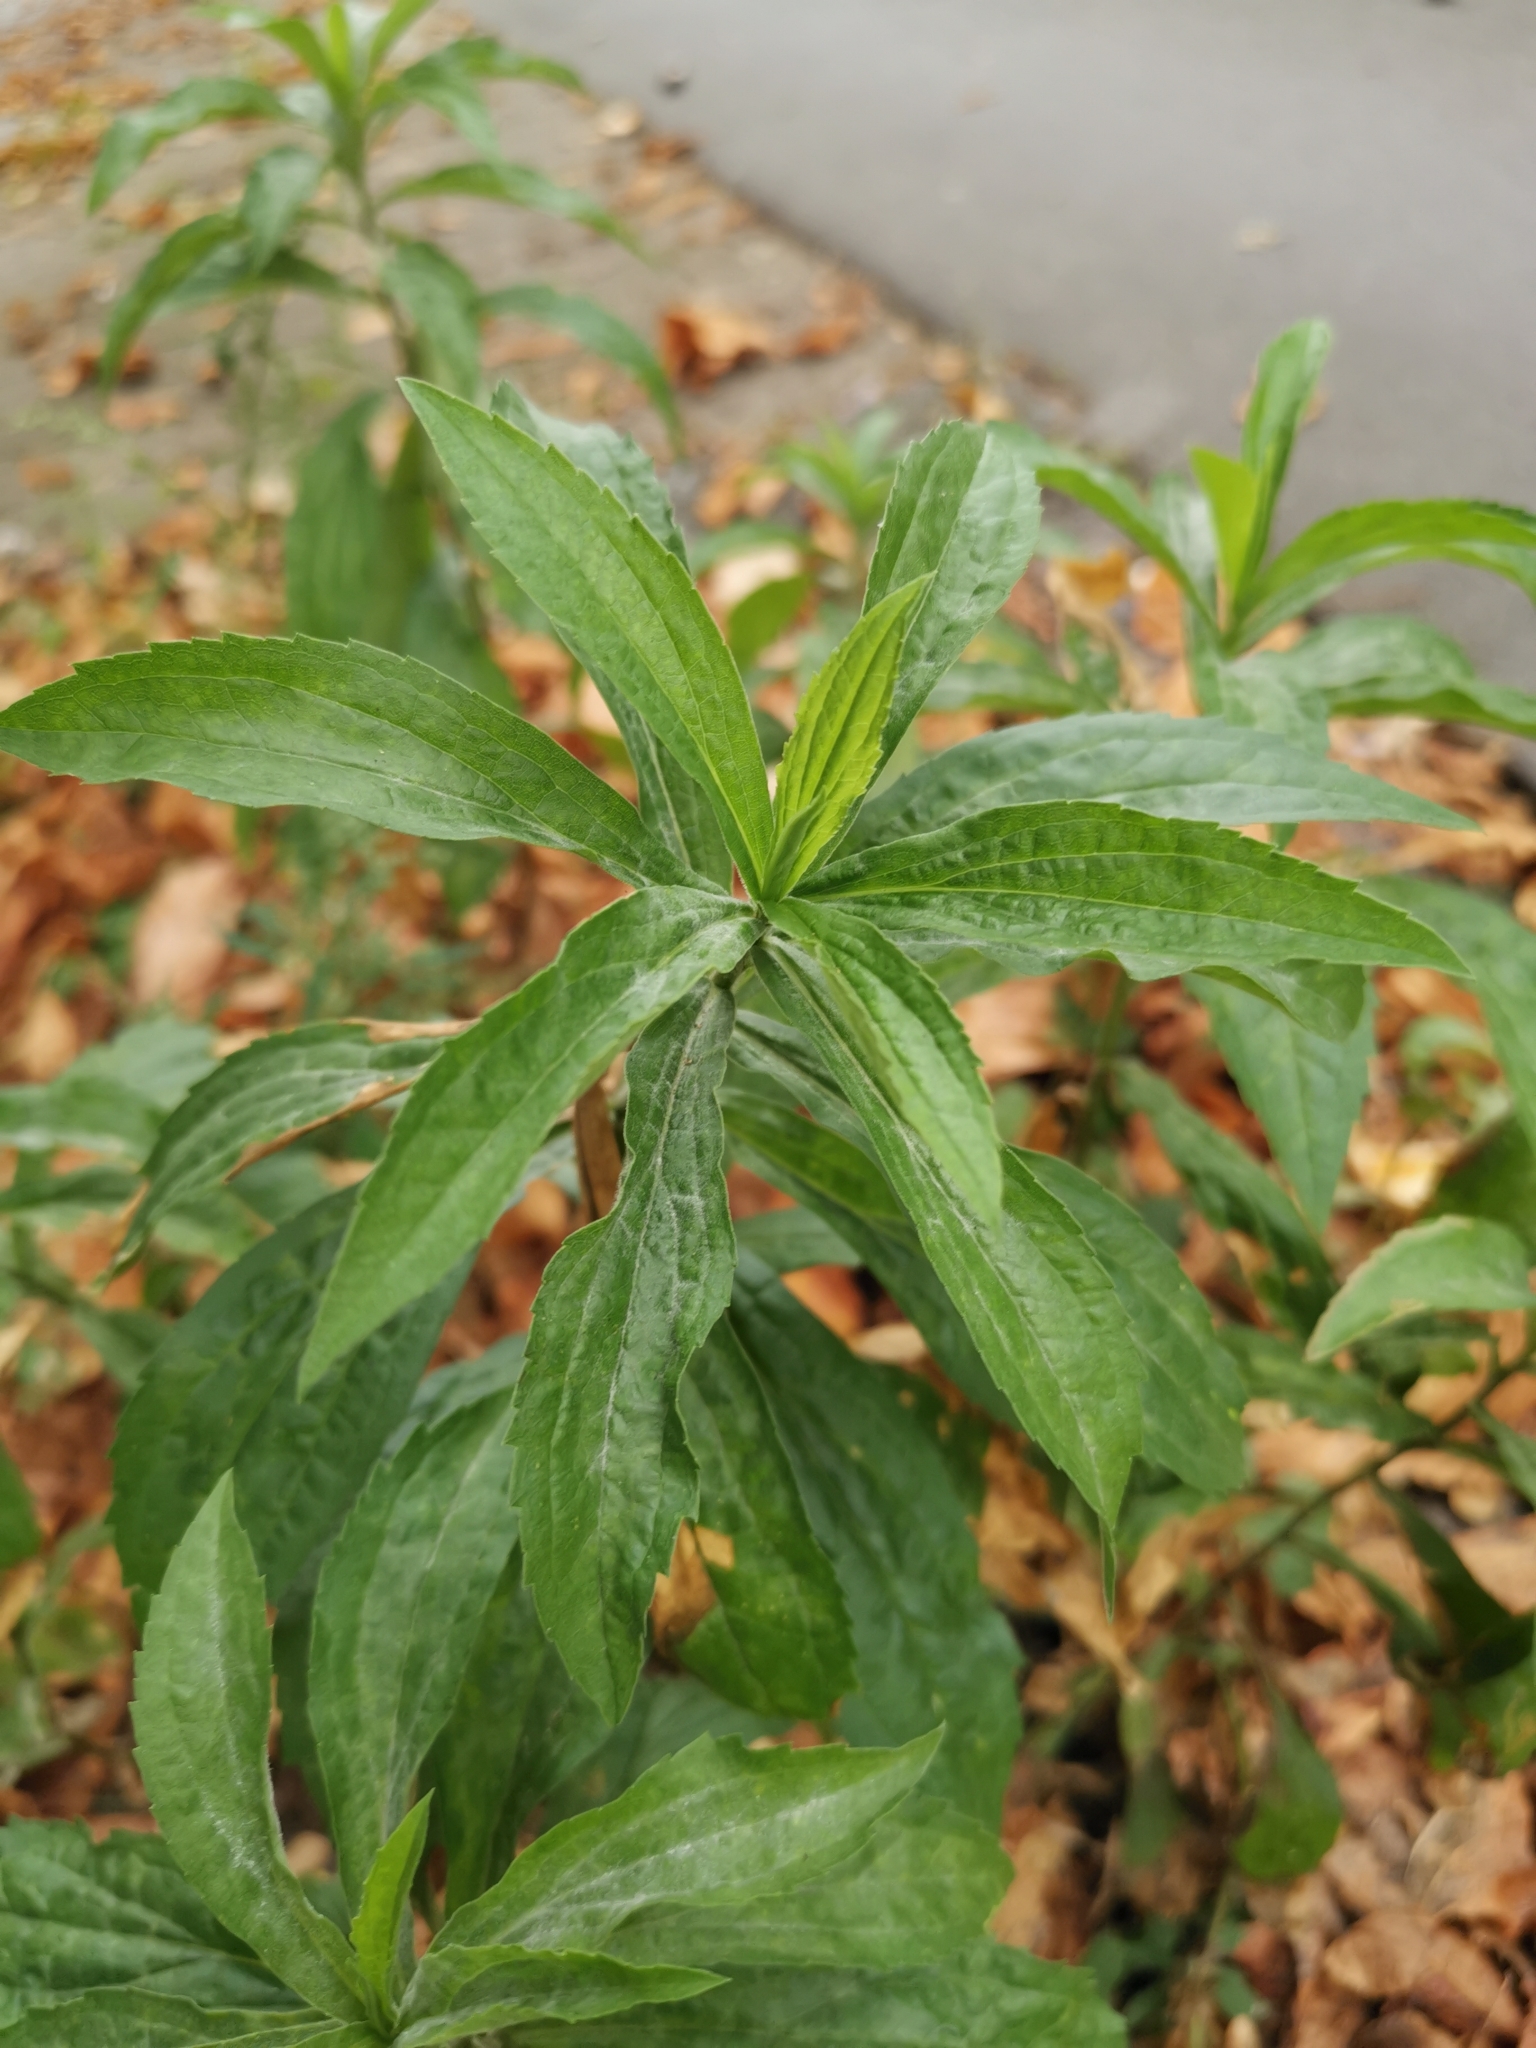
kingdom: Plantae
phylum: Tracheophyta
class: Magnoliopsida
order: Asterales
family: Asteraceae
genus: Solidago
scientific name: Solidago canadensis
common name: Canada goldenrod
